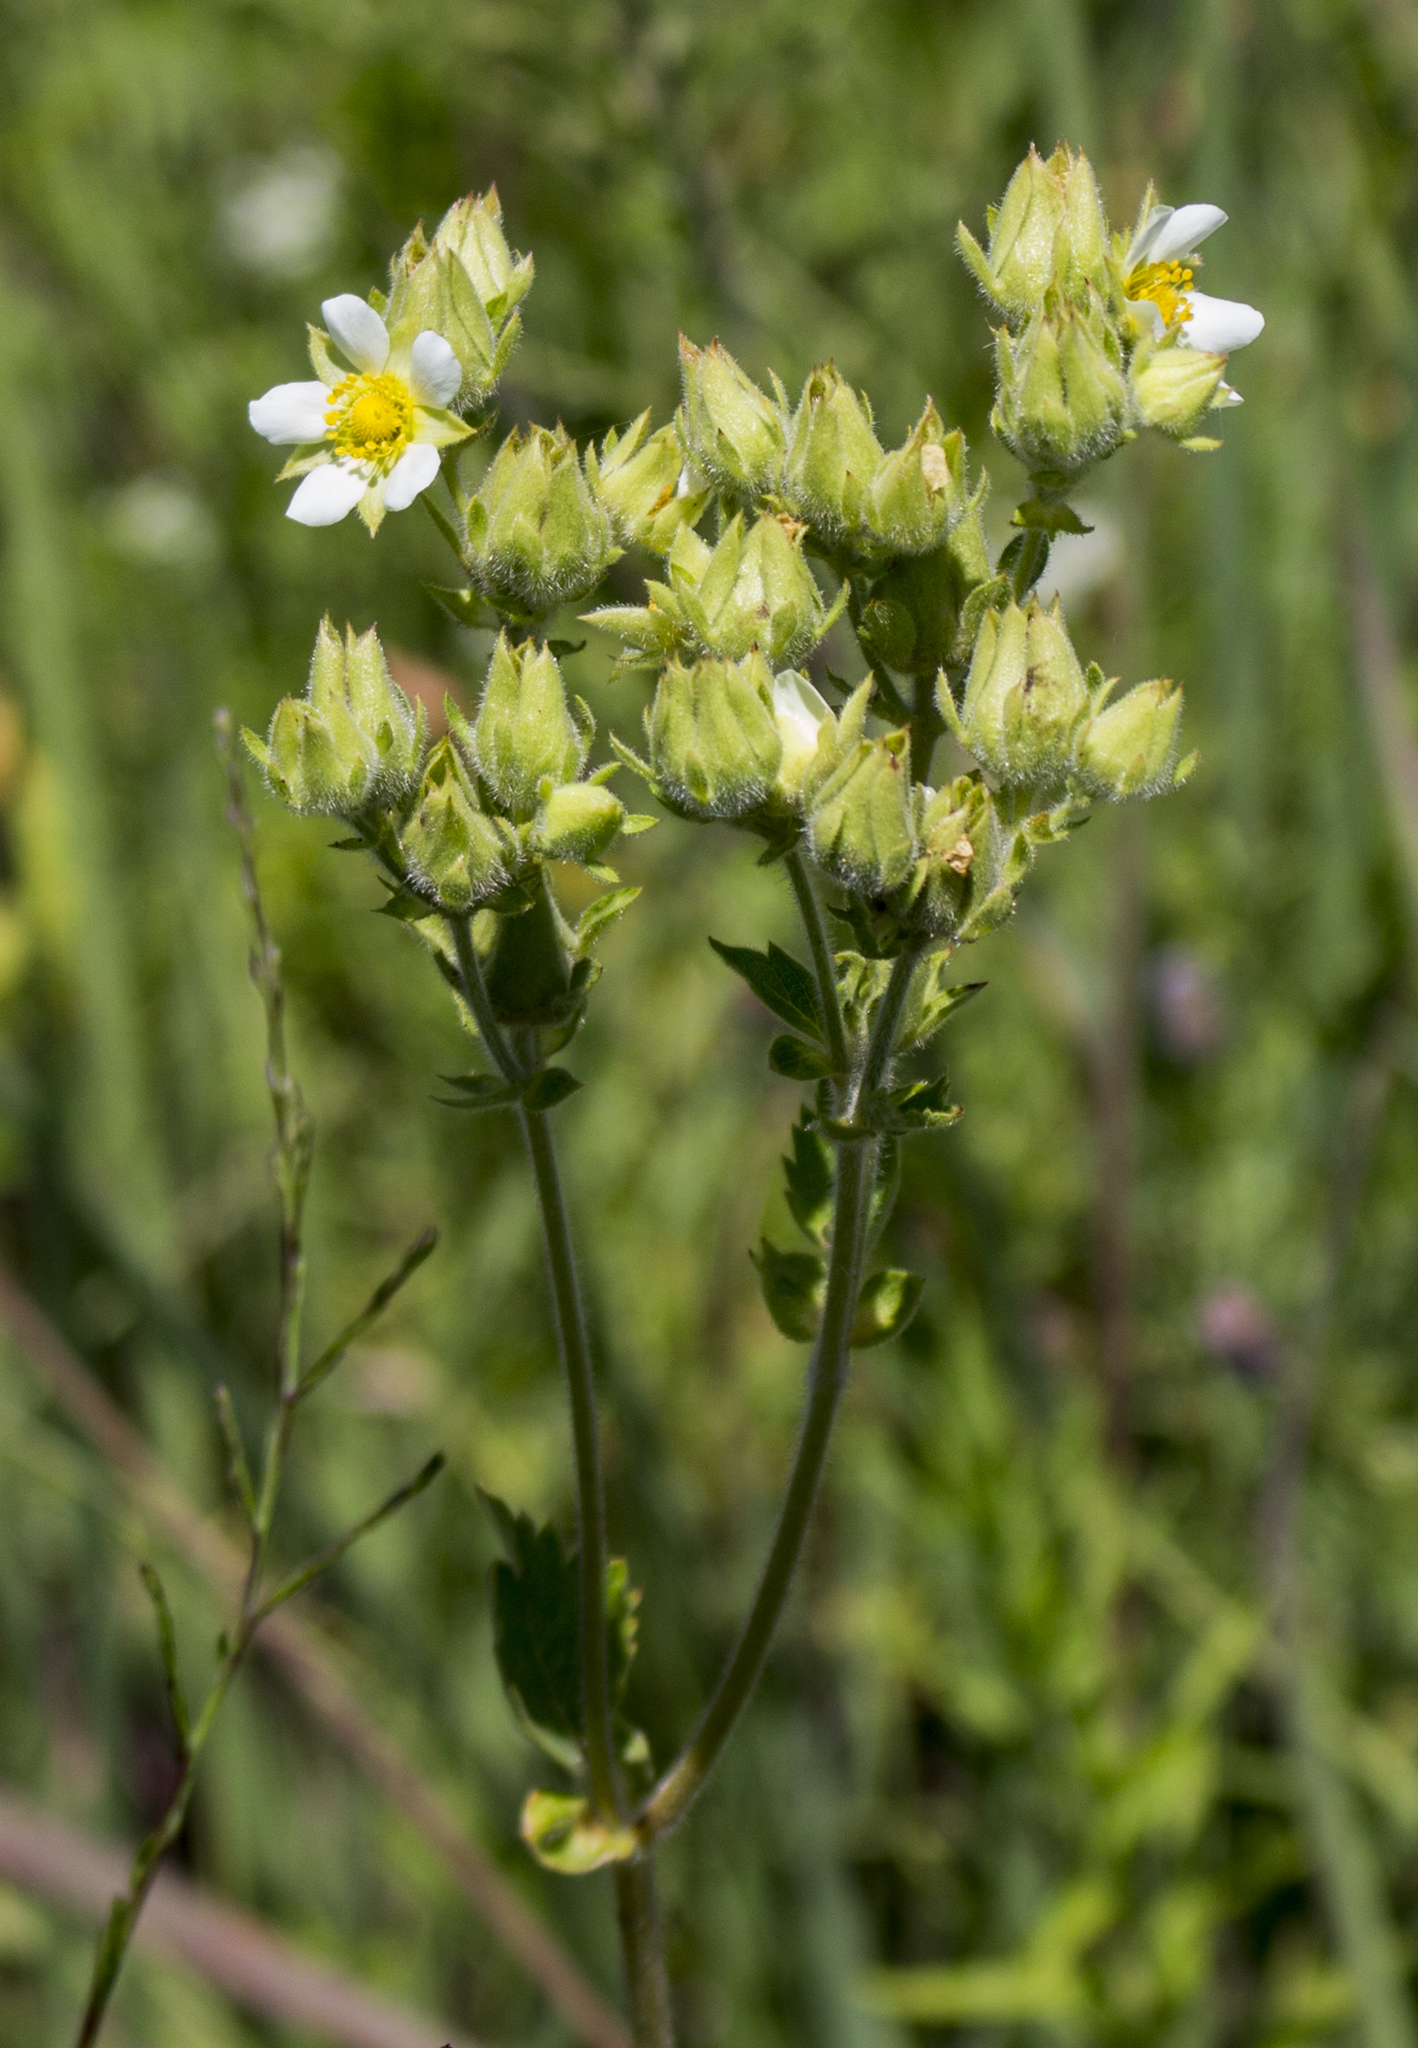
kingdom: Plantae
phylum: Tracheophyta
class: Magnoliopsida
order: Rosales
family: Rosaceae
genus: Drymocallis
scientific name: Drymocallis arguta
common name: Tall cinquefoil
